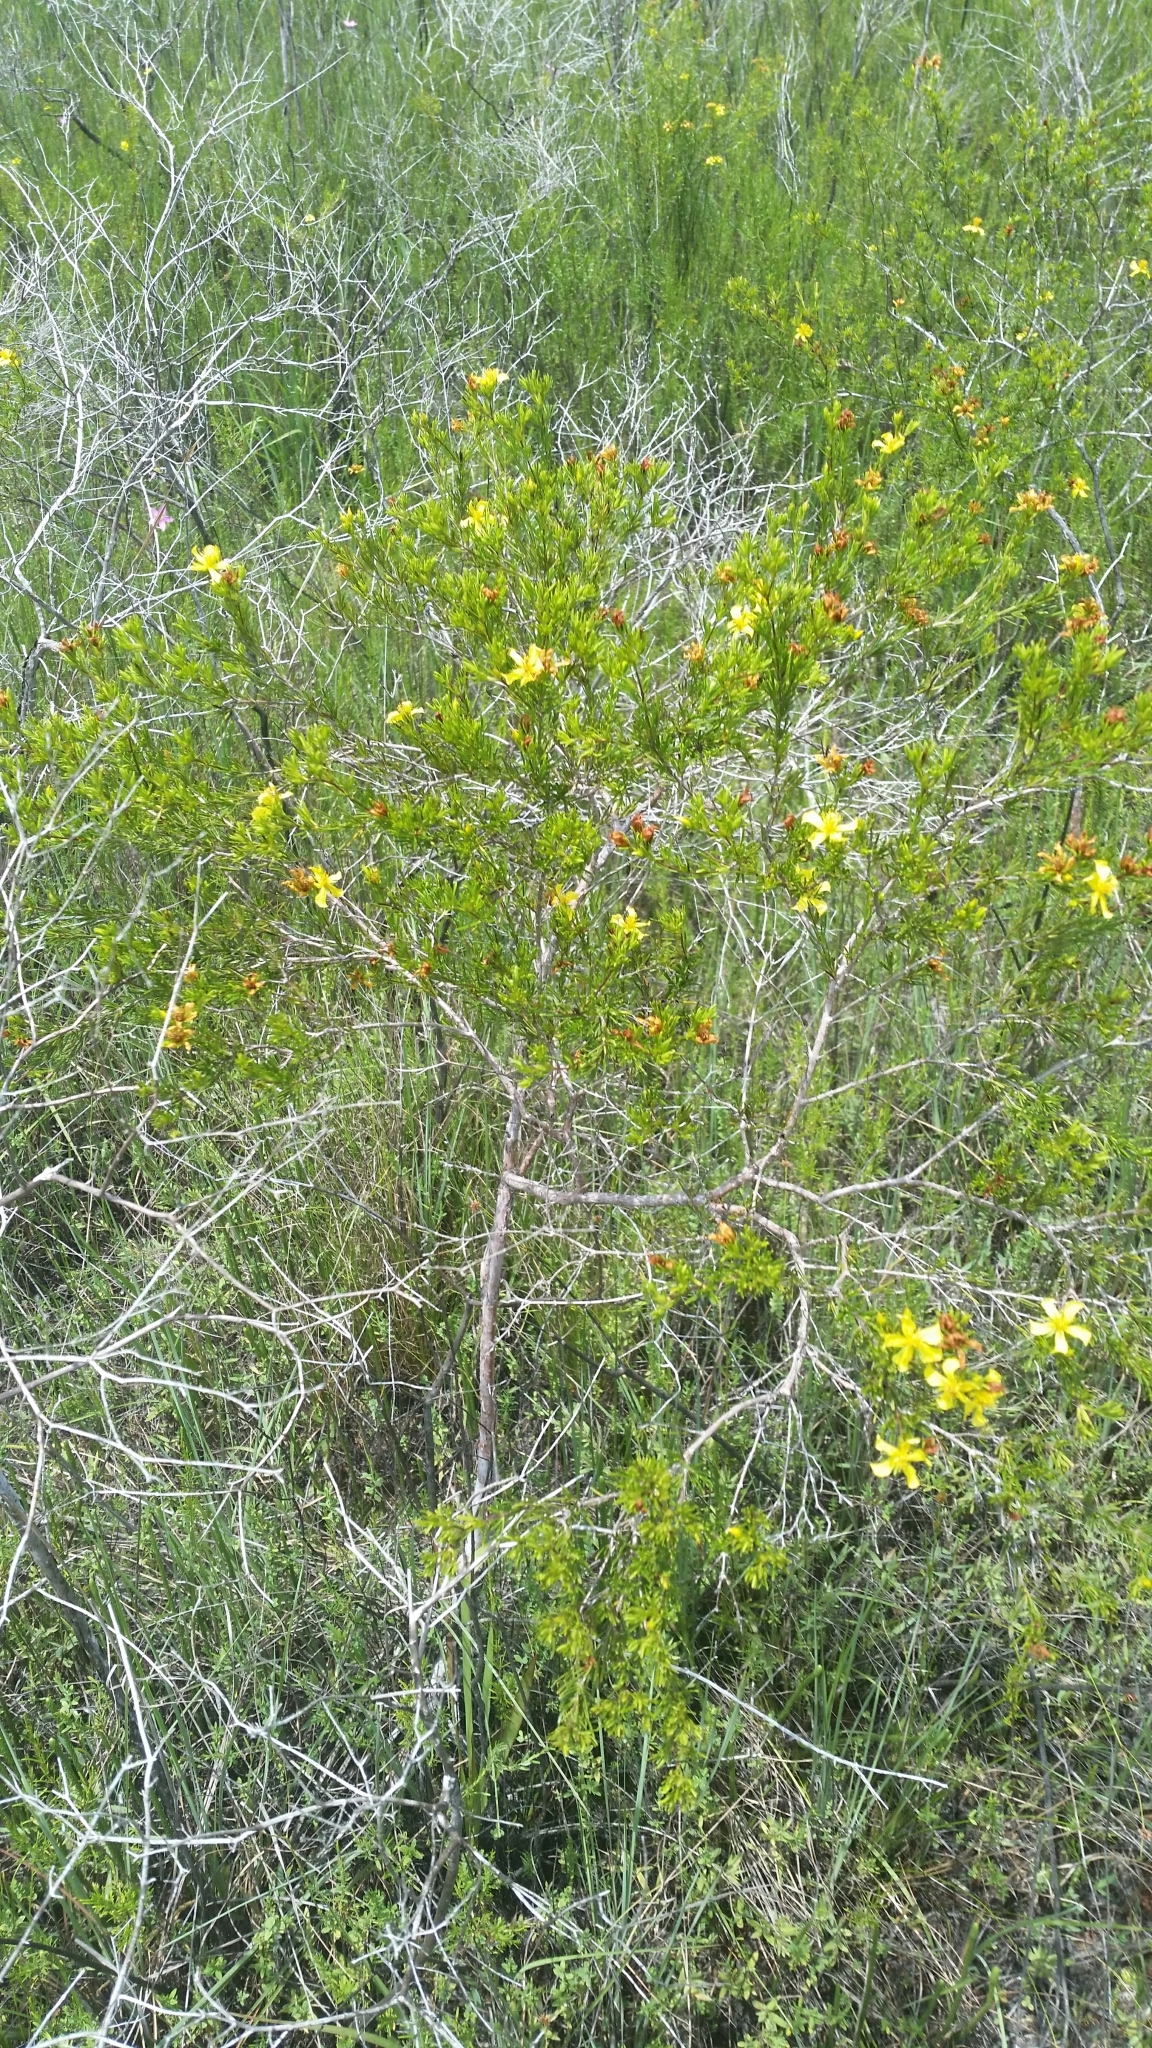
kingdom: Plantae
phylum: Tracheophyta
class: Magnoliopsida
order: Malpighiales
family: Hypericaceae
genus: Hypericum
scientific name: Hypericum fasciculatum
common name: Peelbark st. john's wort
